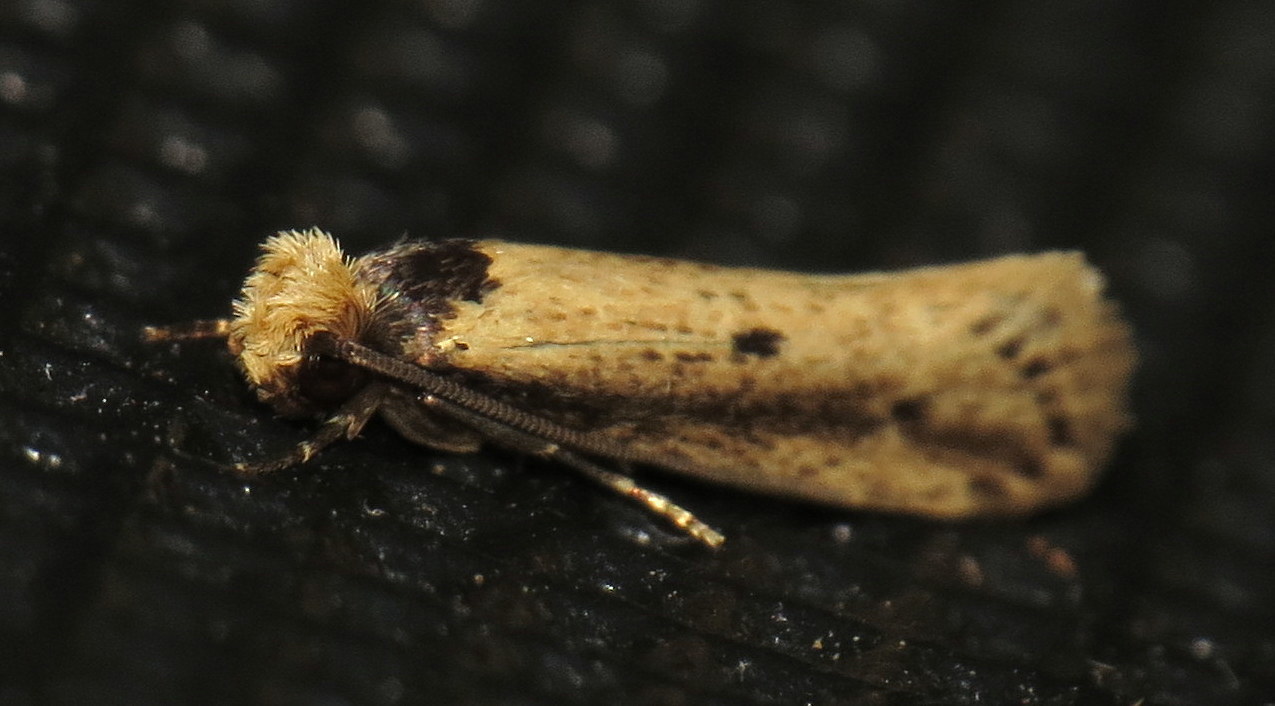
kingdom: Animalia
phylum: Arthropoda
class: Insecta
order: Lepidoptera
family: Tineidae
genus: Tinea
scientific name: Tinea apicimaculella
